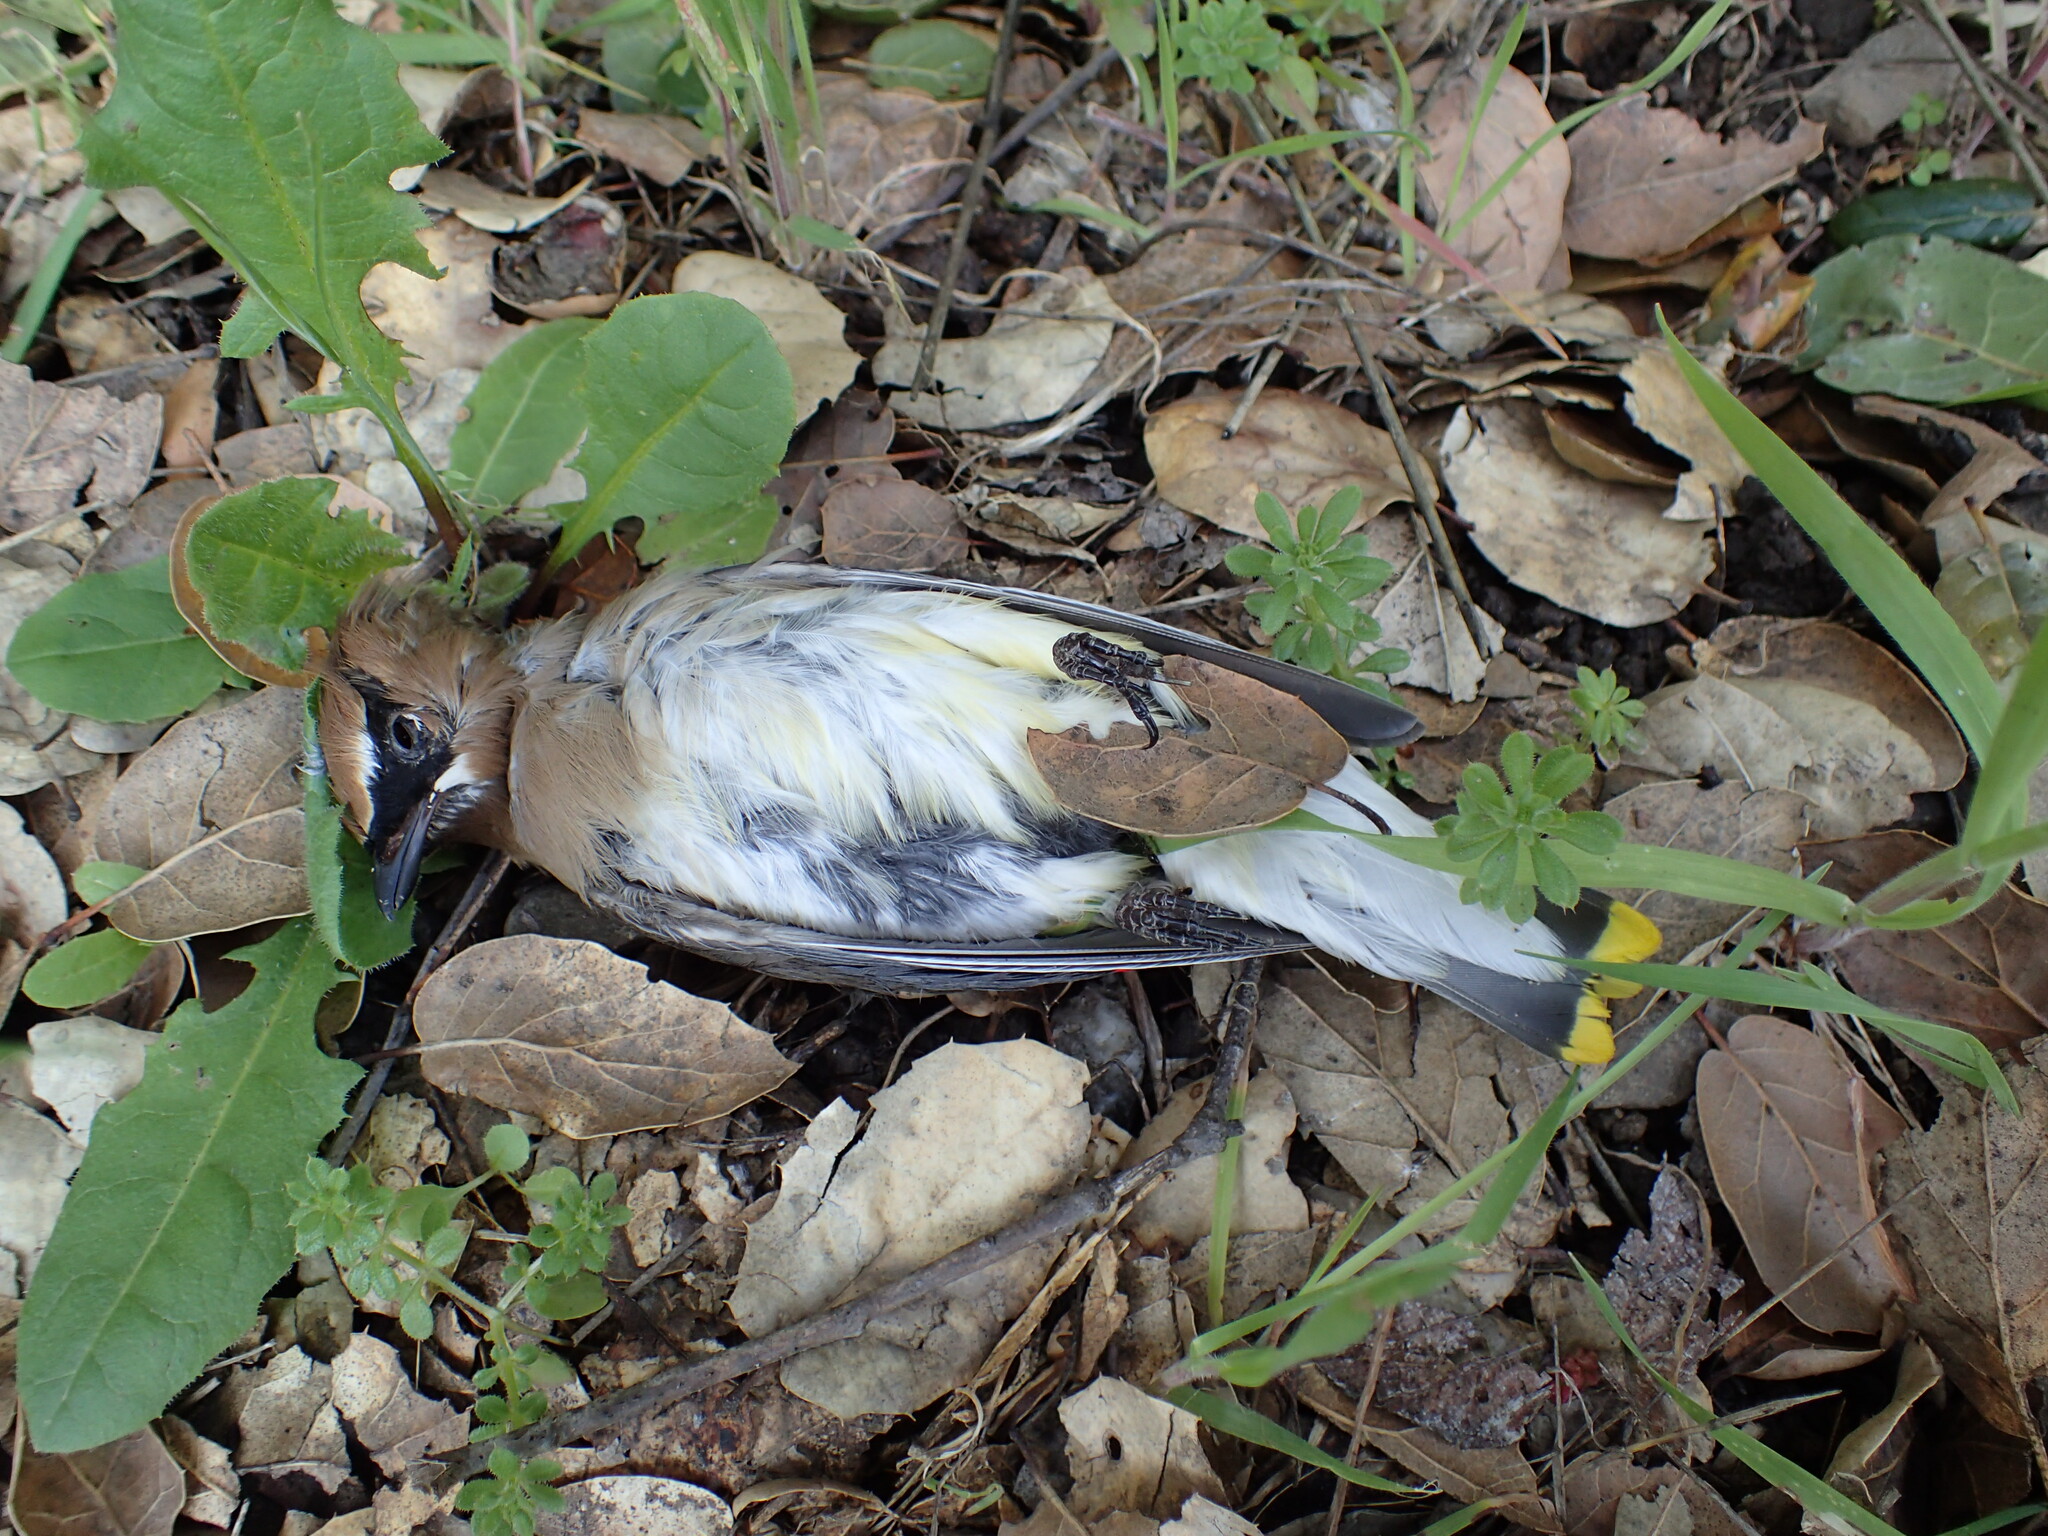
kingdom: Animalia
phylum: Chordata
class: Aves
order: Passeriformes
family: Bombycillidae
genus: Bombycilla
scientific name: Bombycilla cedrorum
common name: Cedar waxwing
